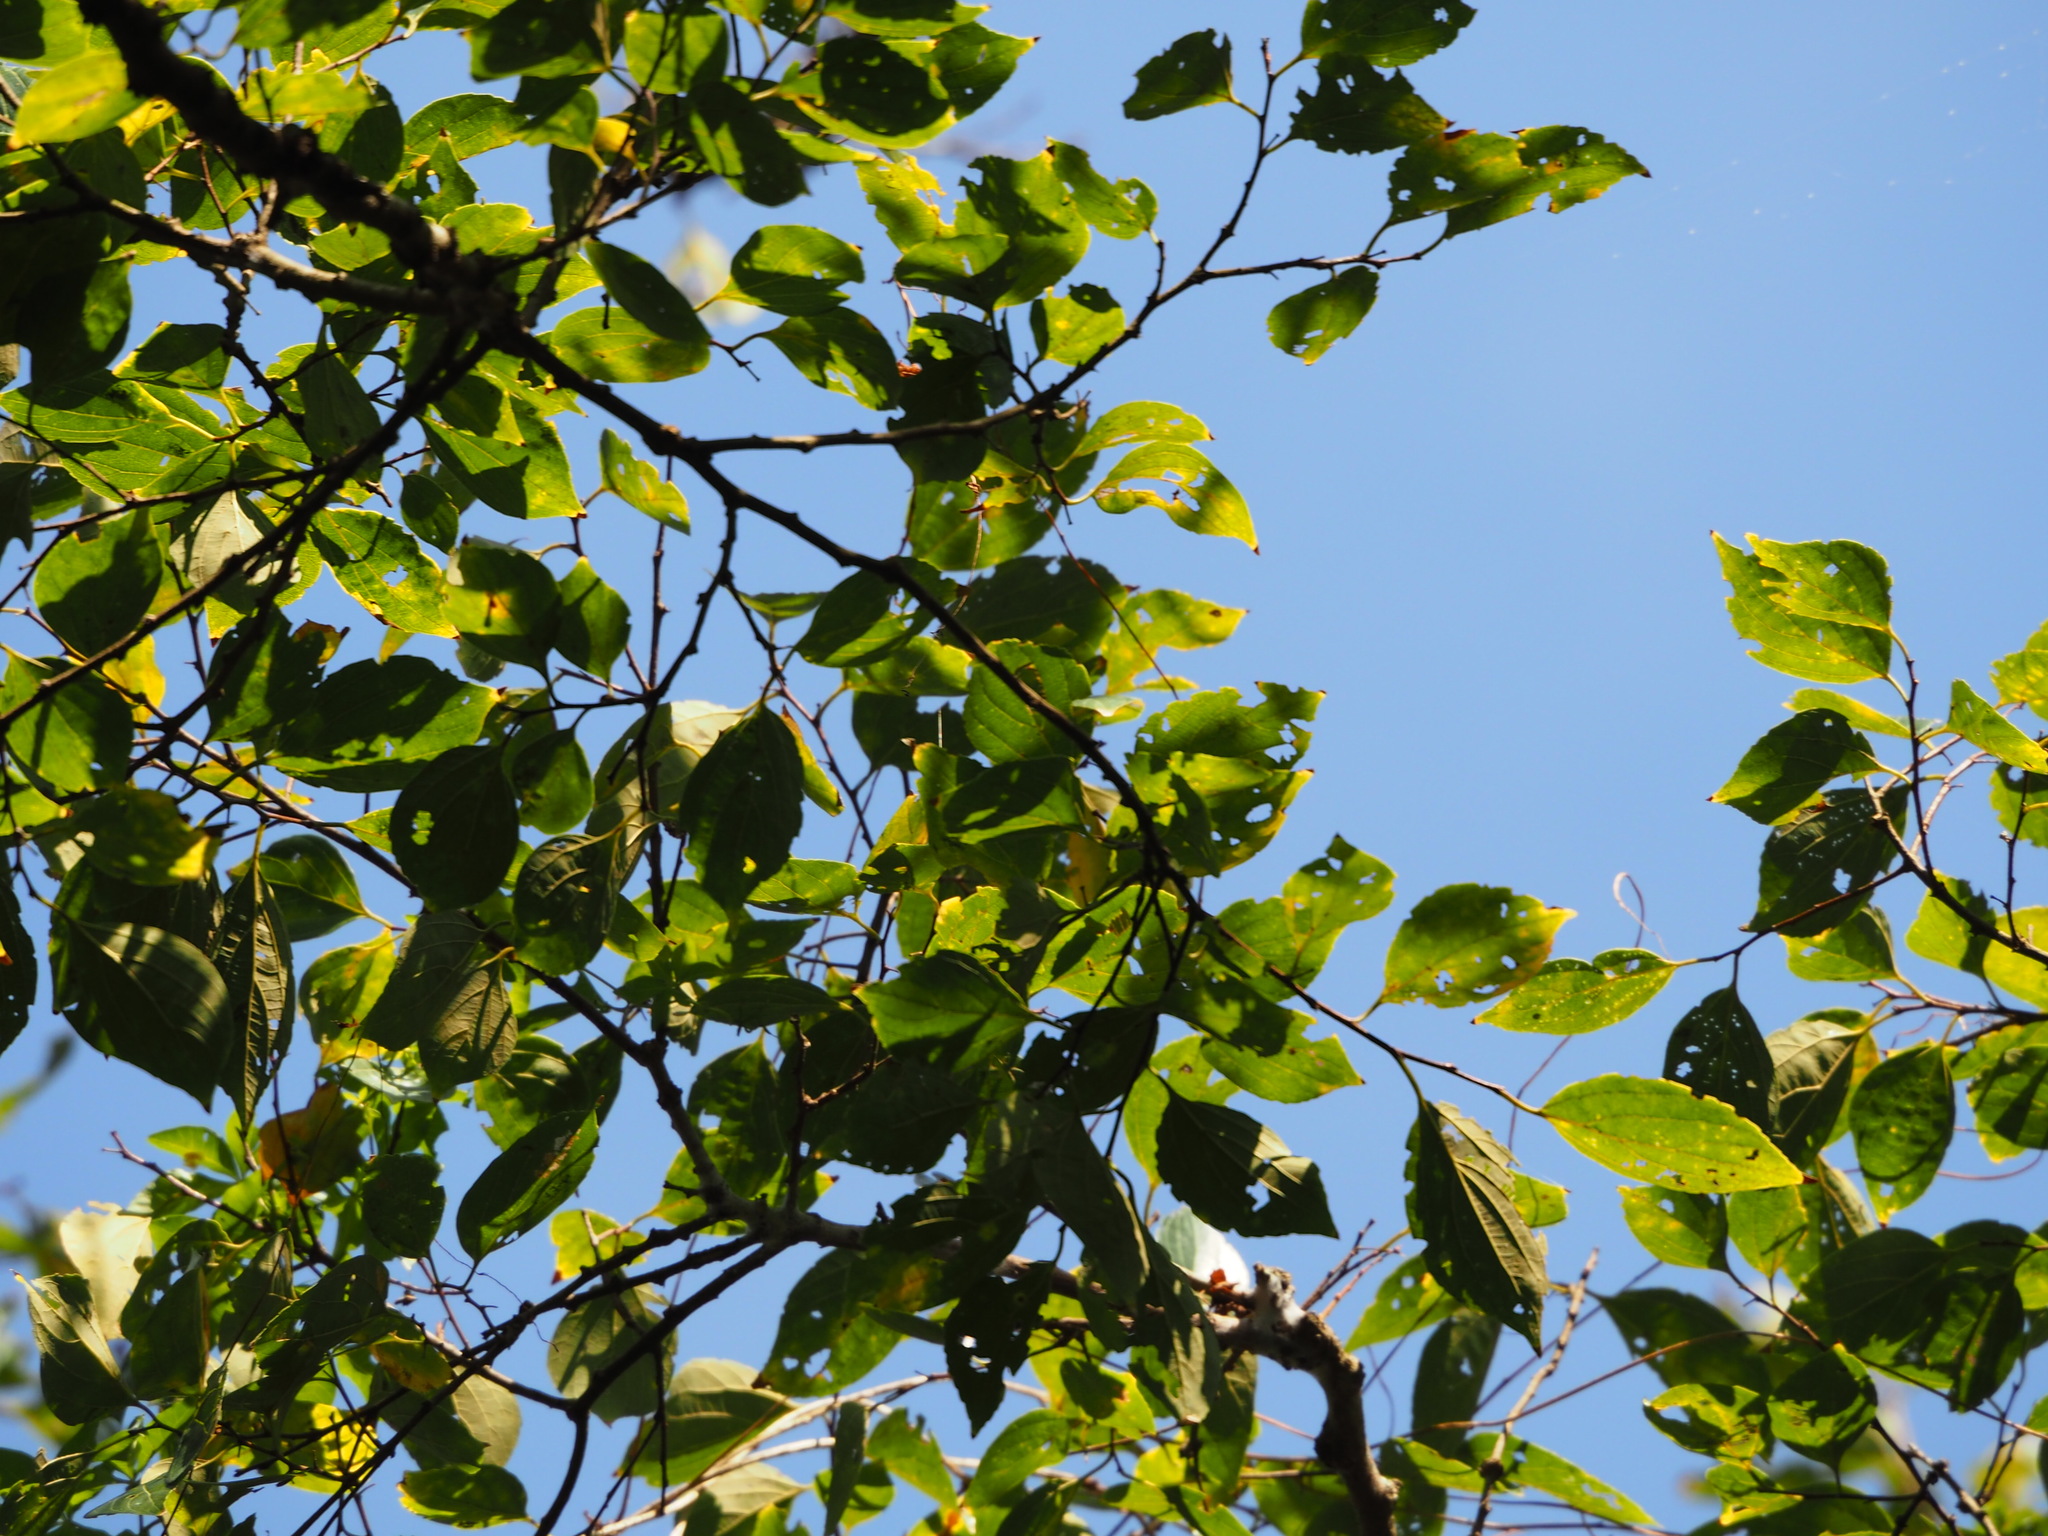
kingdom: Plantae
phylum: Tracheophyta
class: Magnoliopsida
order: Rosales
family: Cannabaceae
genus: Celtis
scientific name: Celtis sinensis
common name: Chinese hackberry
